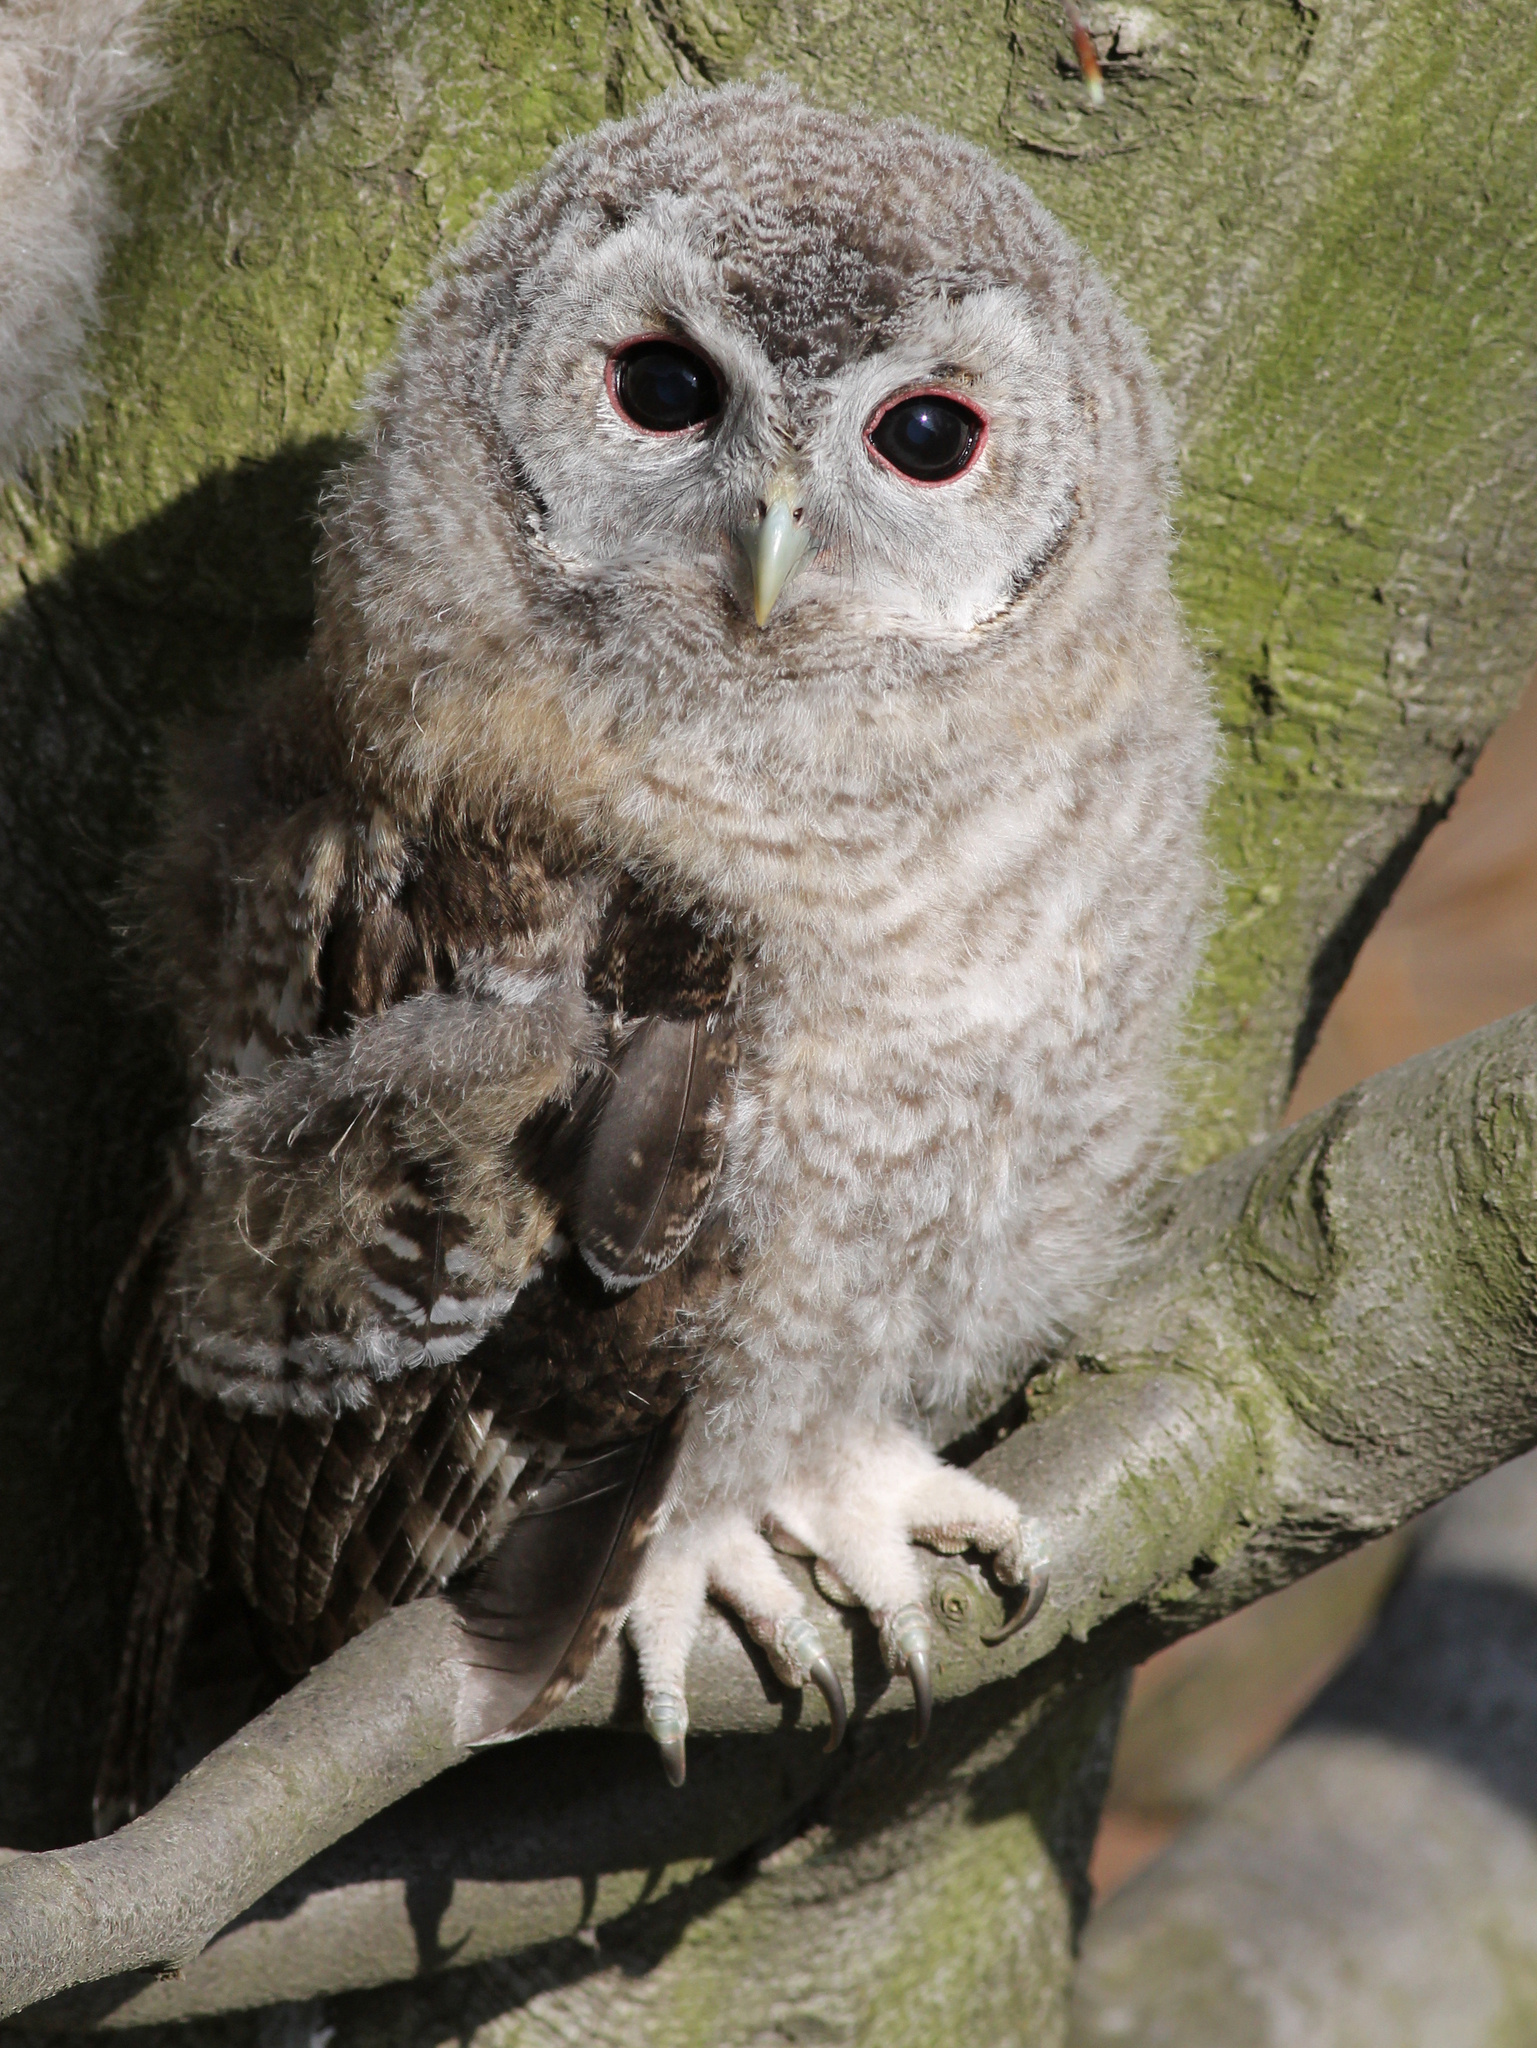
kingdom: Animalia
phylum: Chordata
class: Aves
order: Strigiformes
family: Strigidae
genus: Strix
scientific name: Strix aluco
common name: Tawny owl
